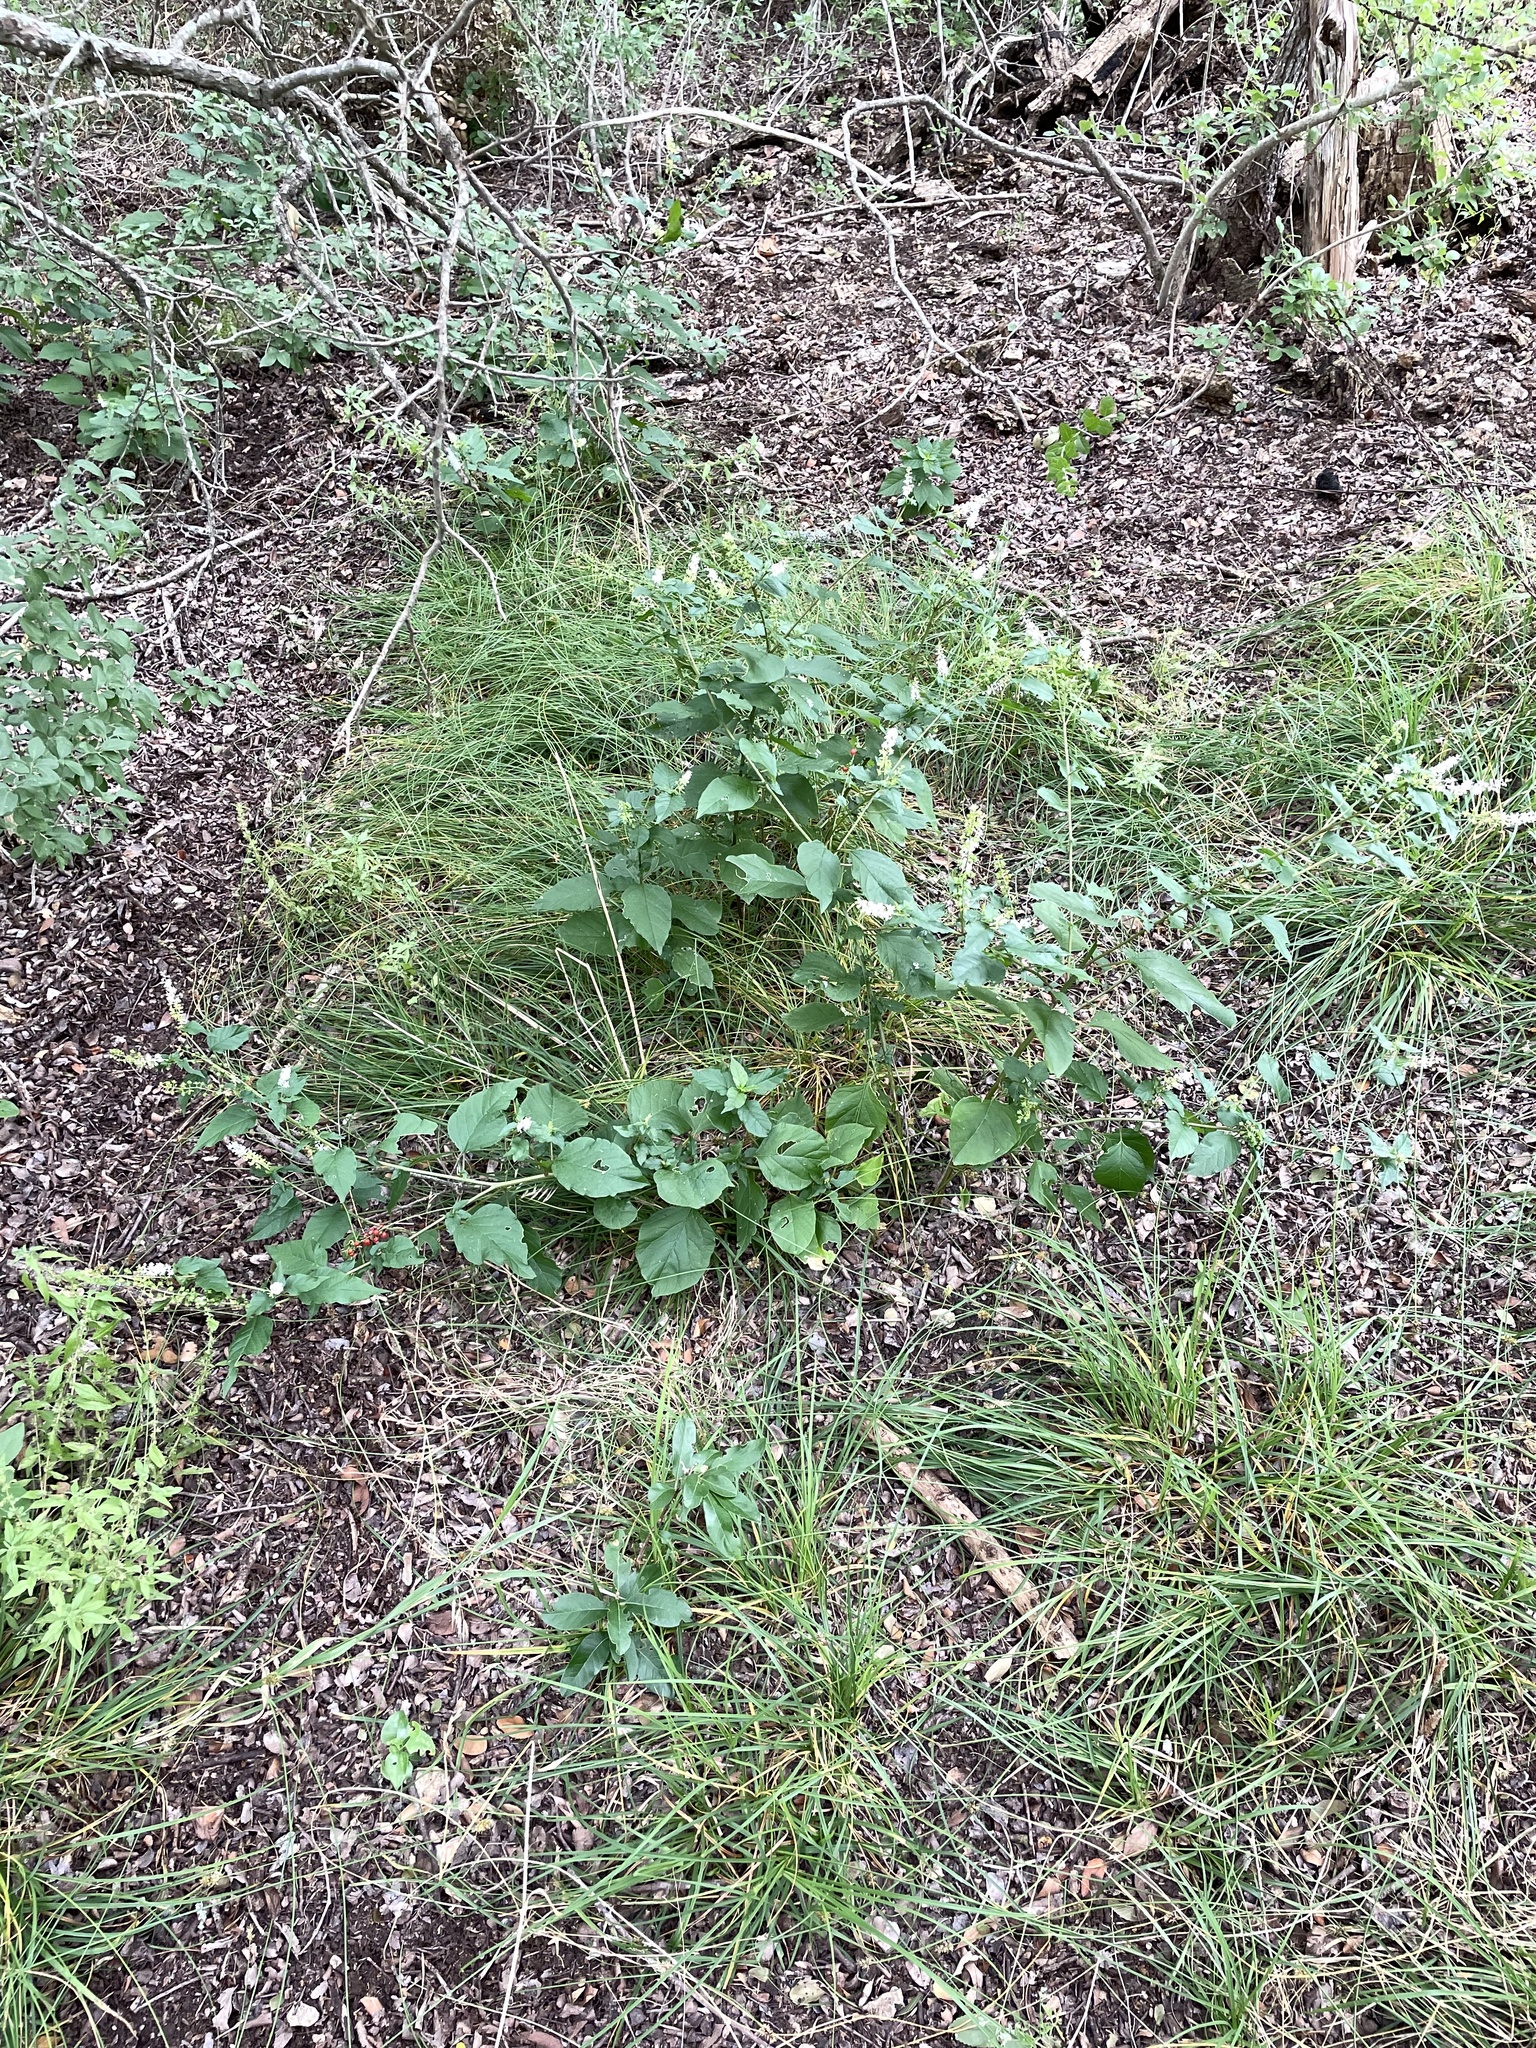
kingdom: Plantae
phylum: Tracheophyta
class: Magnoliopsida
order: Caryophyllales
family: Phytolaccaceae
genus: Rivina
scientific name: Rivina humilis
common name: Rougeplant
